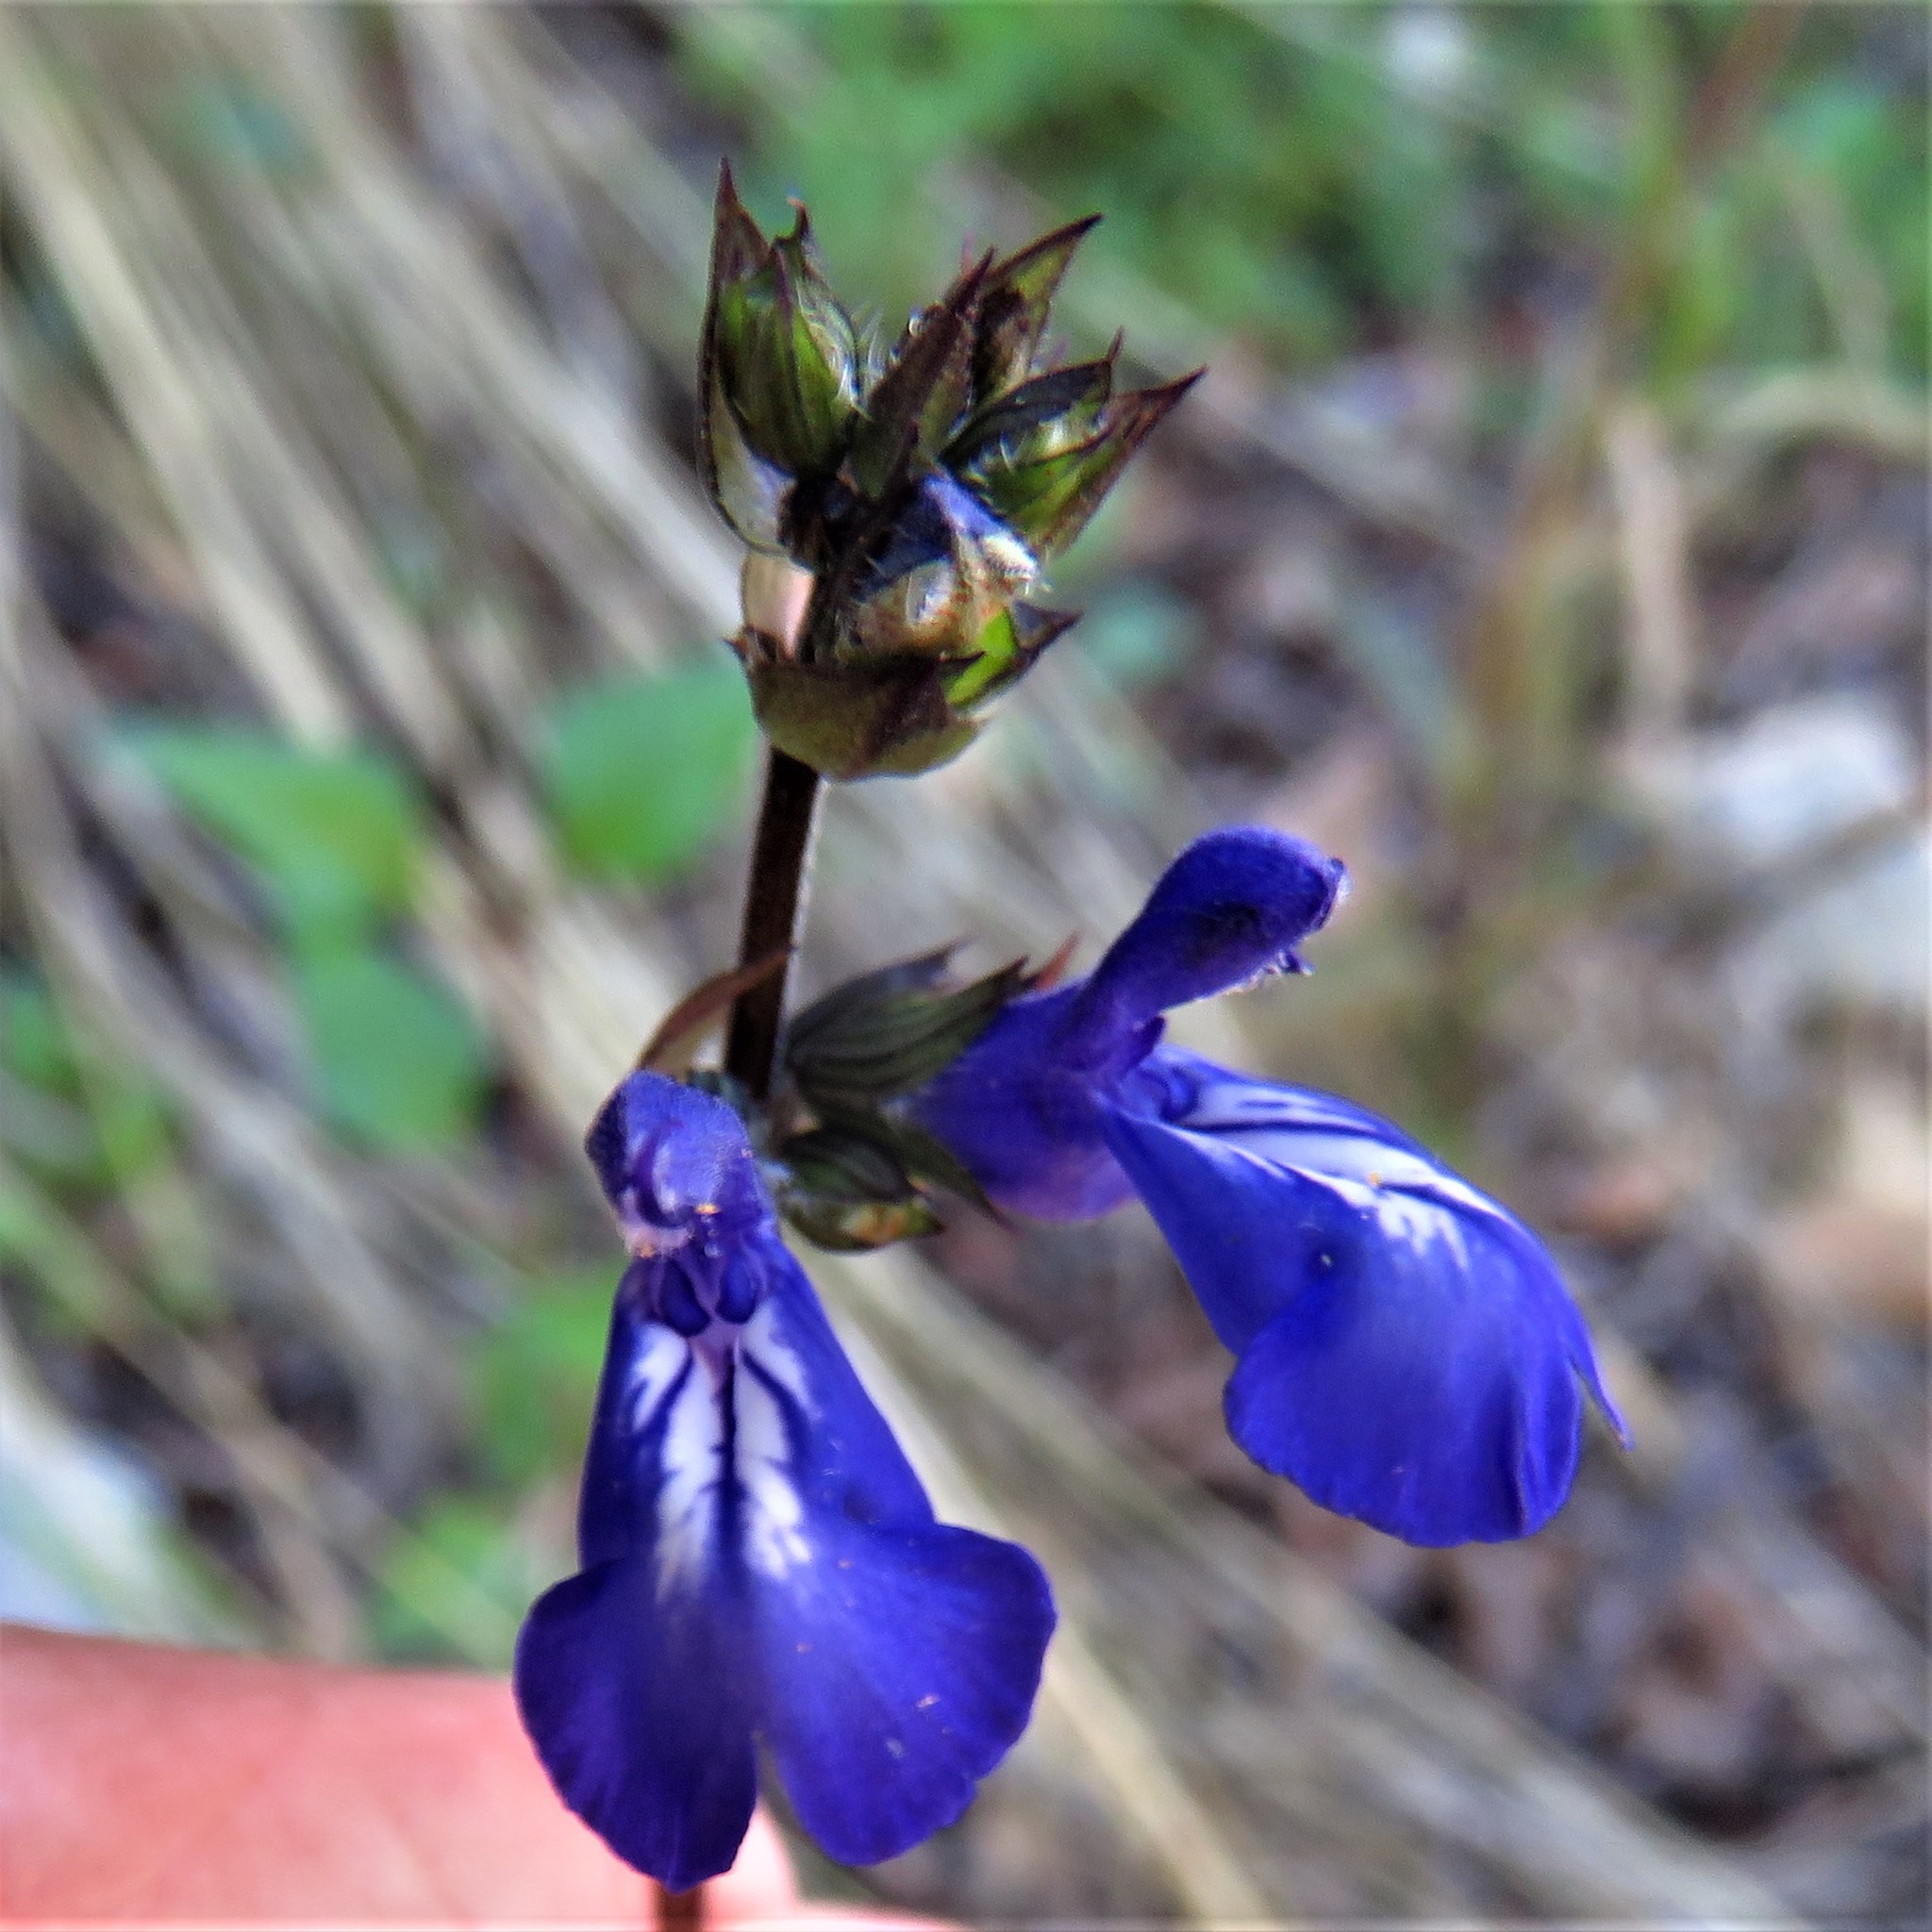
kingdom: Plantae
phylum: Tracheophyta
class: Magnoliopsida
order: Lamiales
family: Lamiaceae
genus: Salvia
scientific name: Salvia prunelloides
